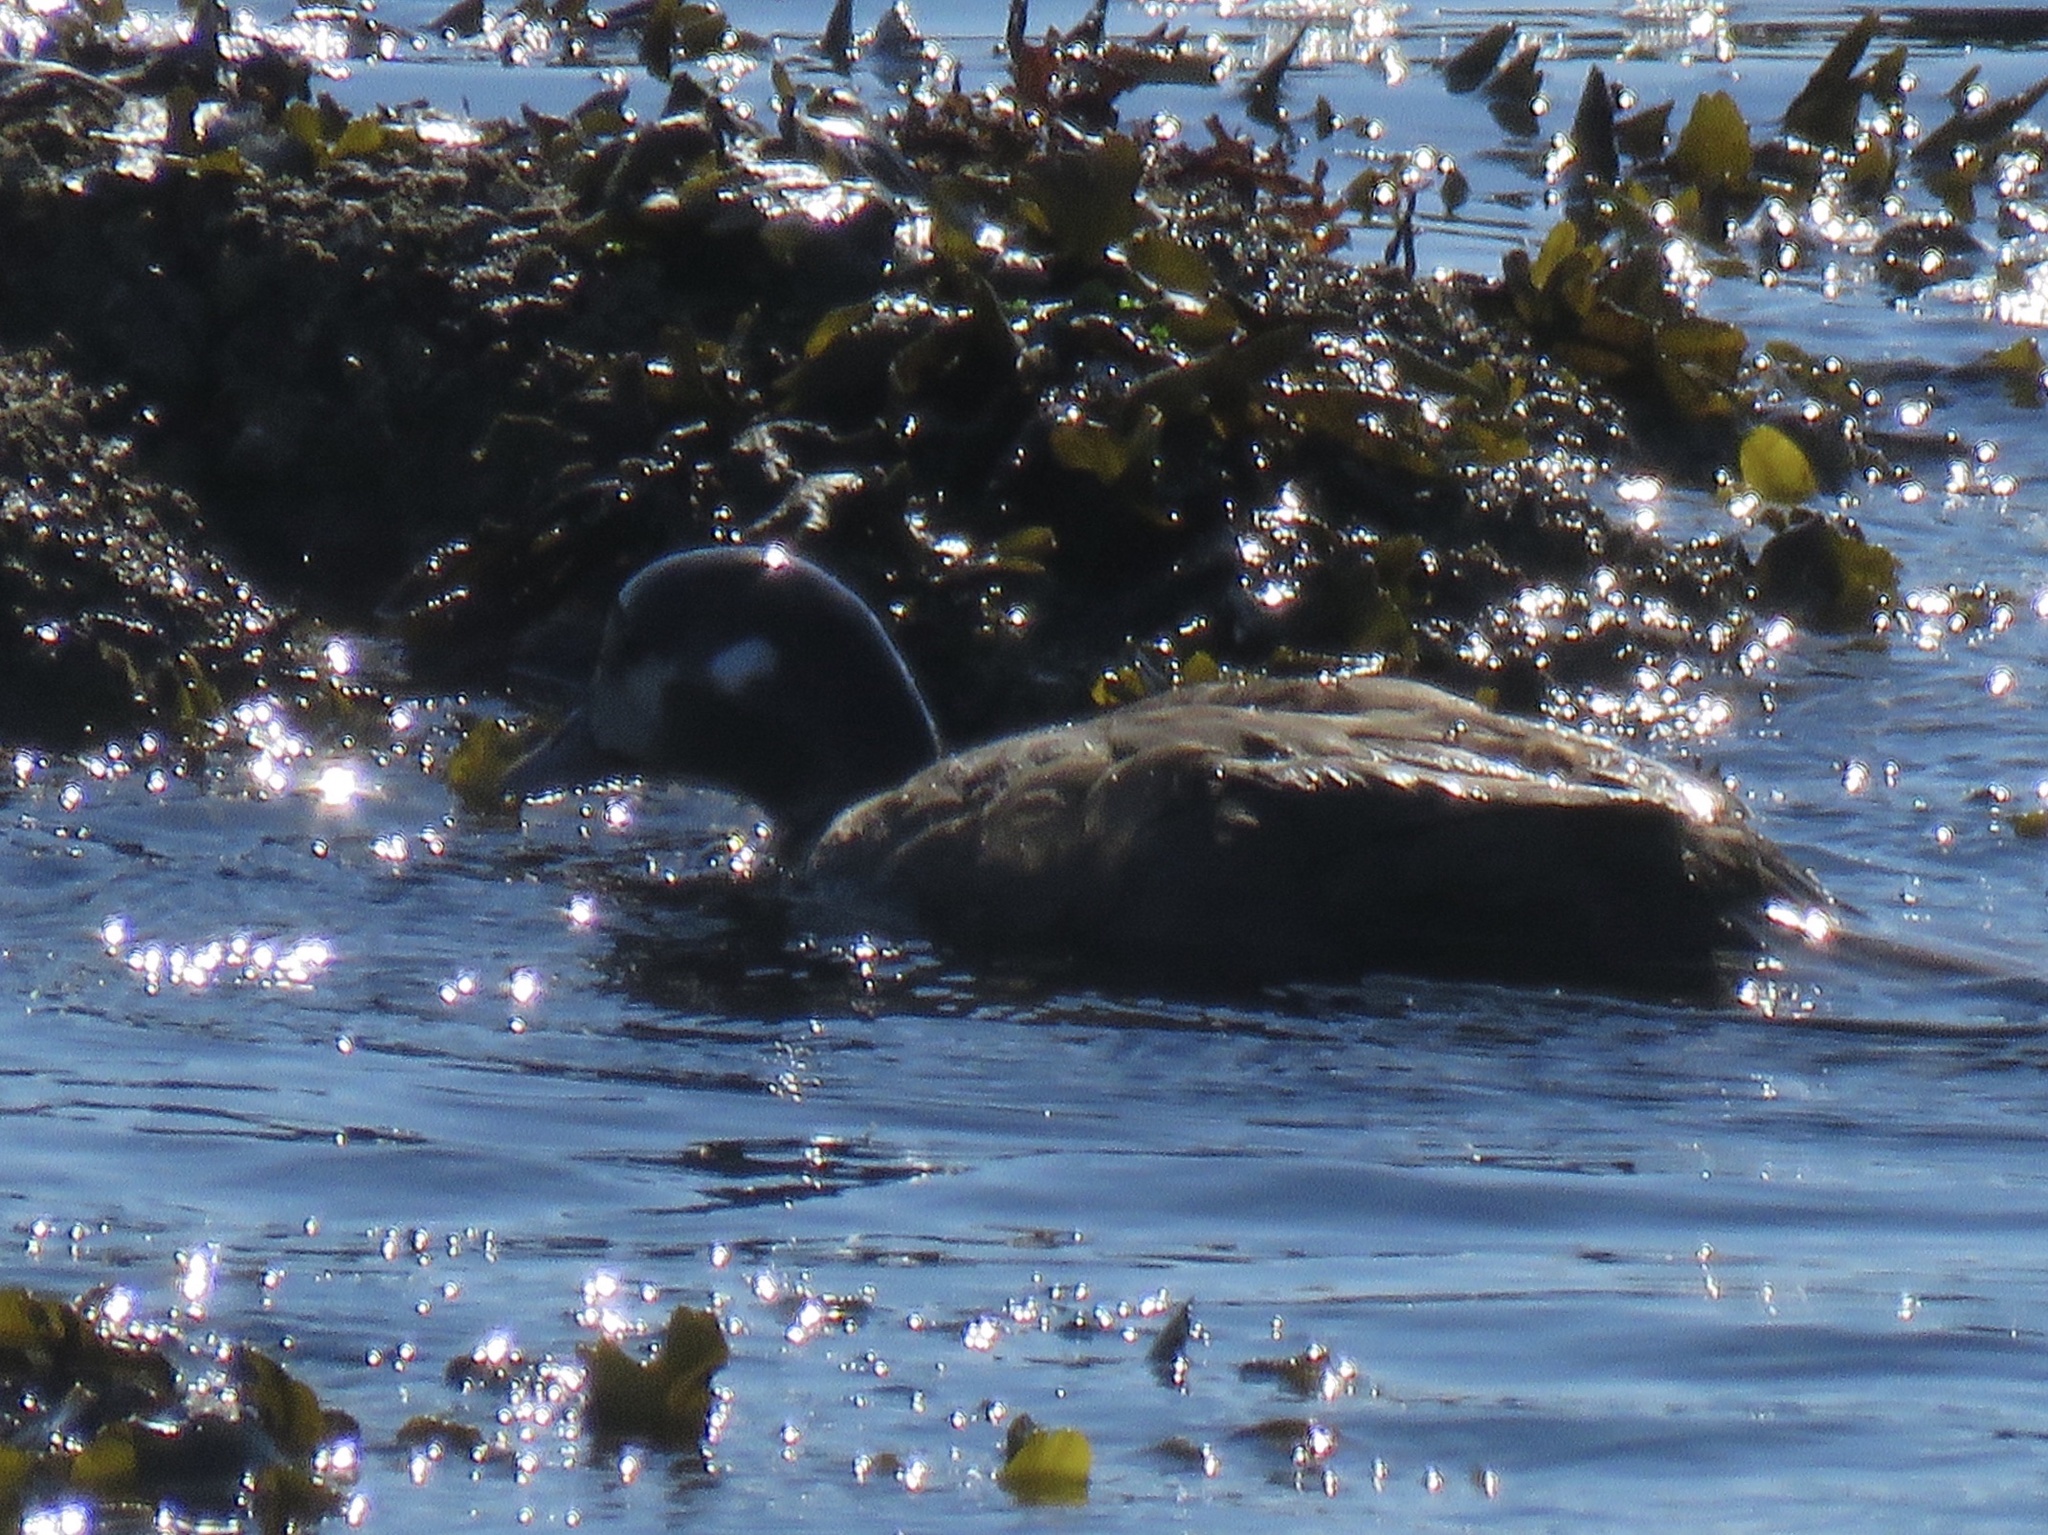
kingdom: Animalia
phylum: Chordata
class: Aves
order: Anseriformes
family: Anatidae
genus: Histrionicus
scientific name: Histrionicus histrionicus
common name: Harlequin duck
